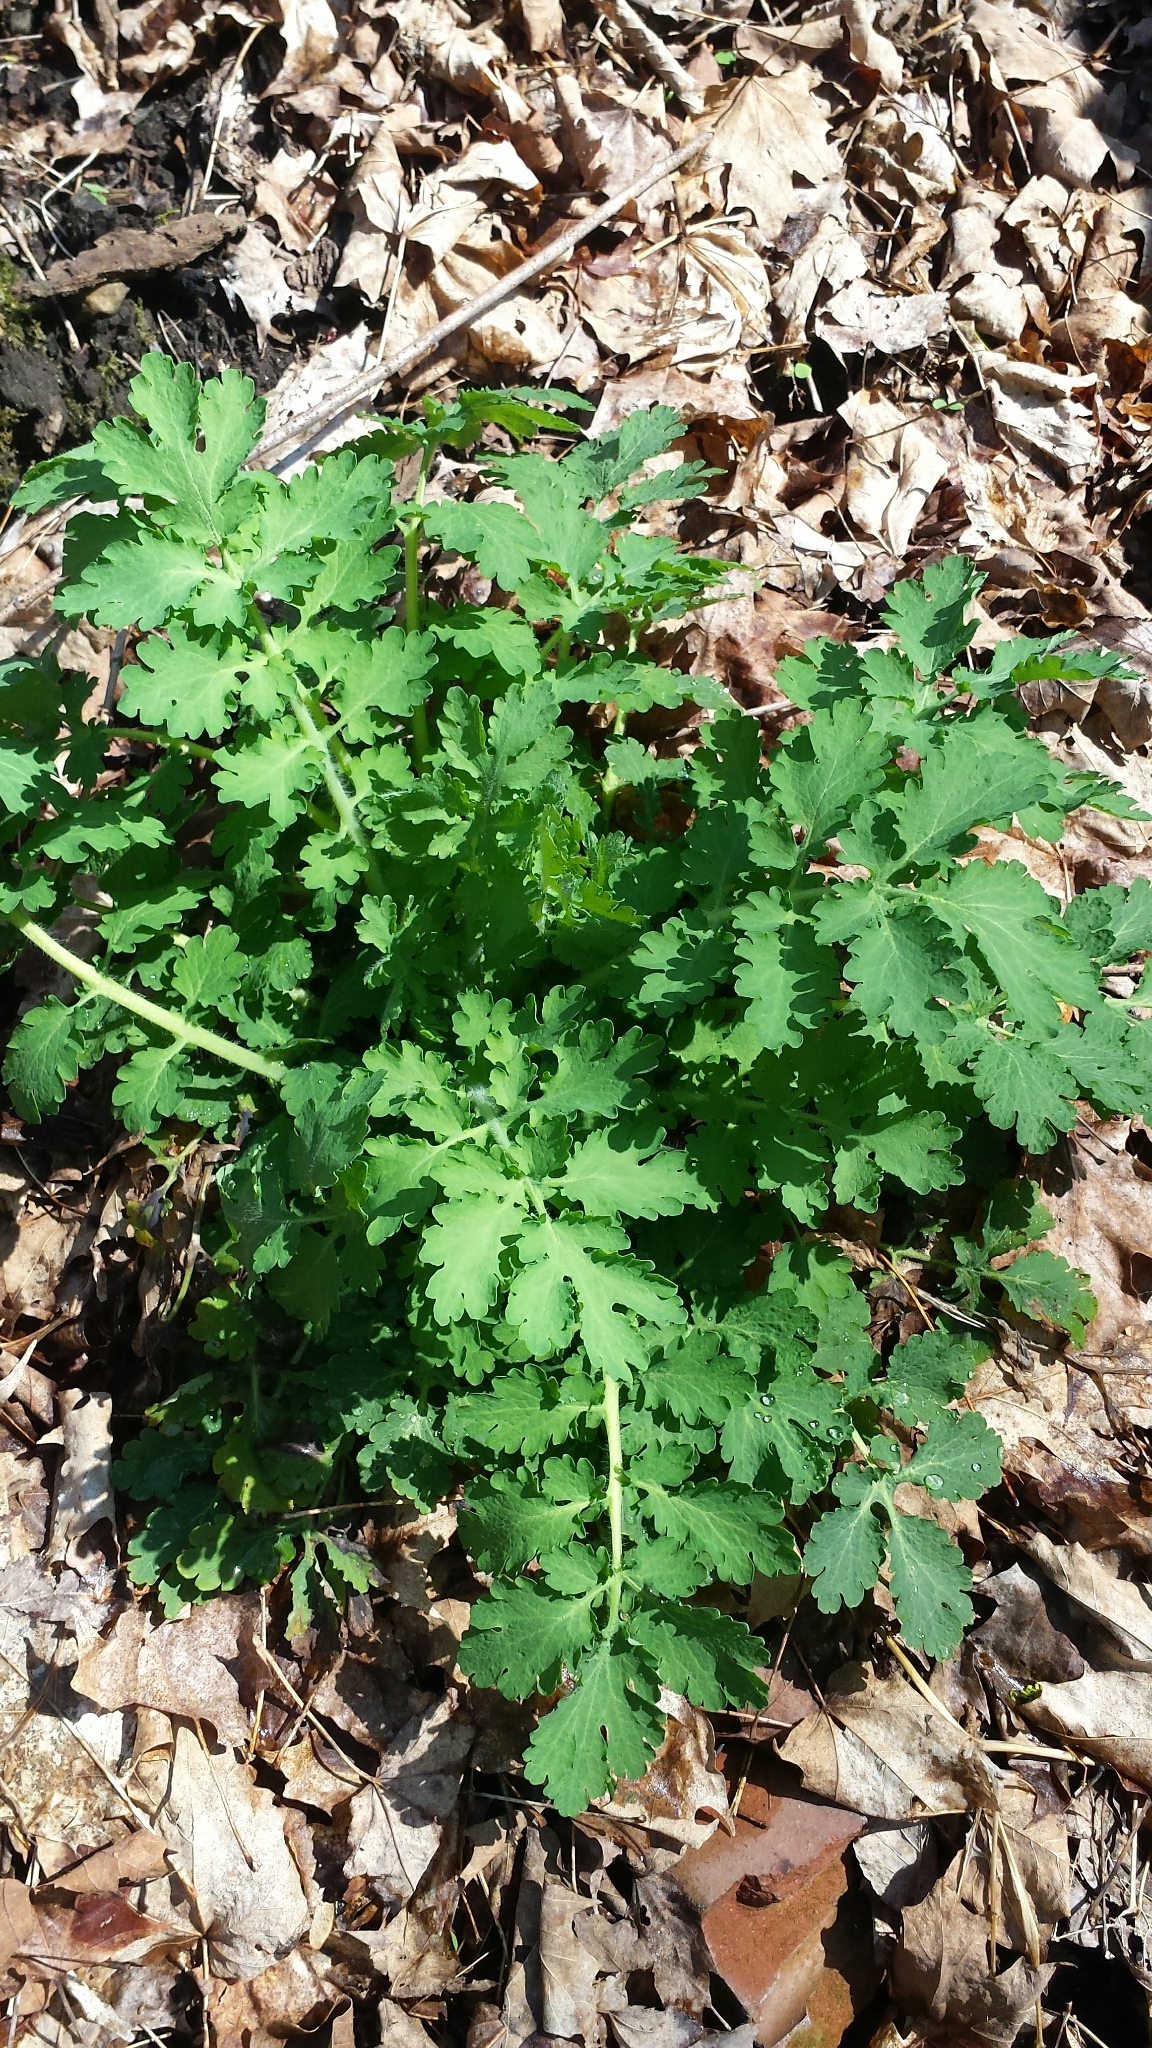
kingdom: Plantae
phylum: Tracheophyta
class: Magnoliopsida
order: Ranunculales
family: Papaveraceae
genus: Chelidonium
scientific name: Chelidonium majus
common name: Greater celandine
